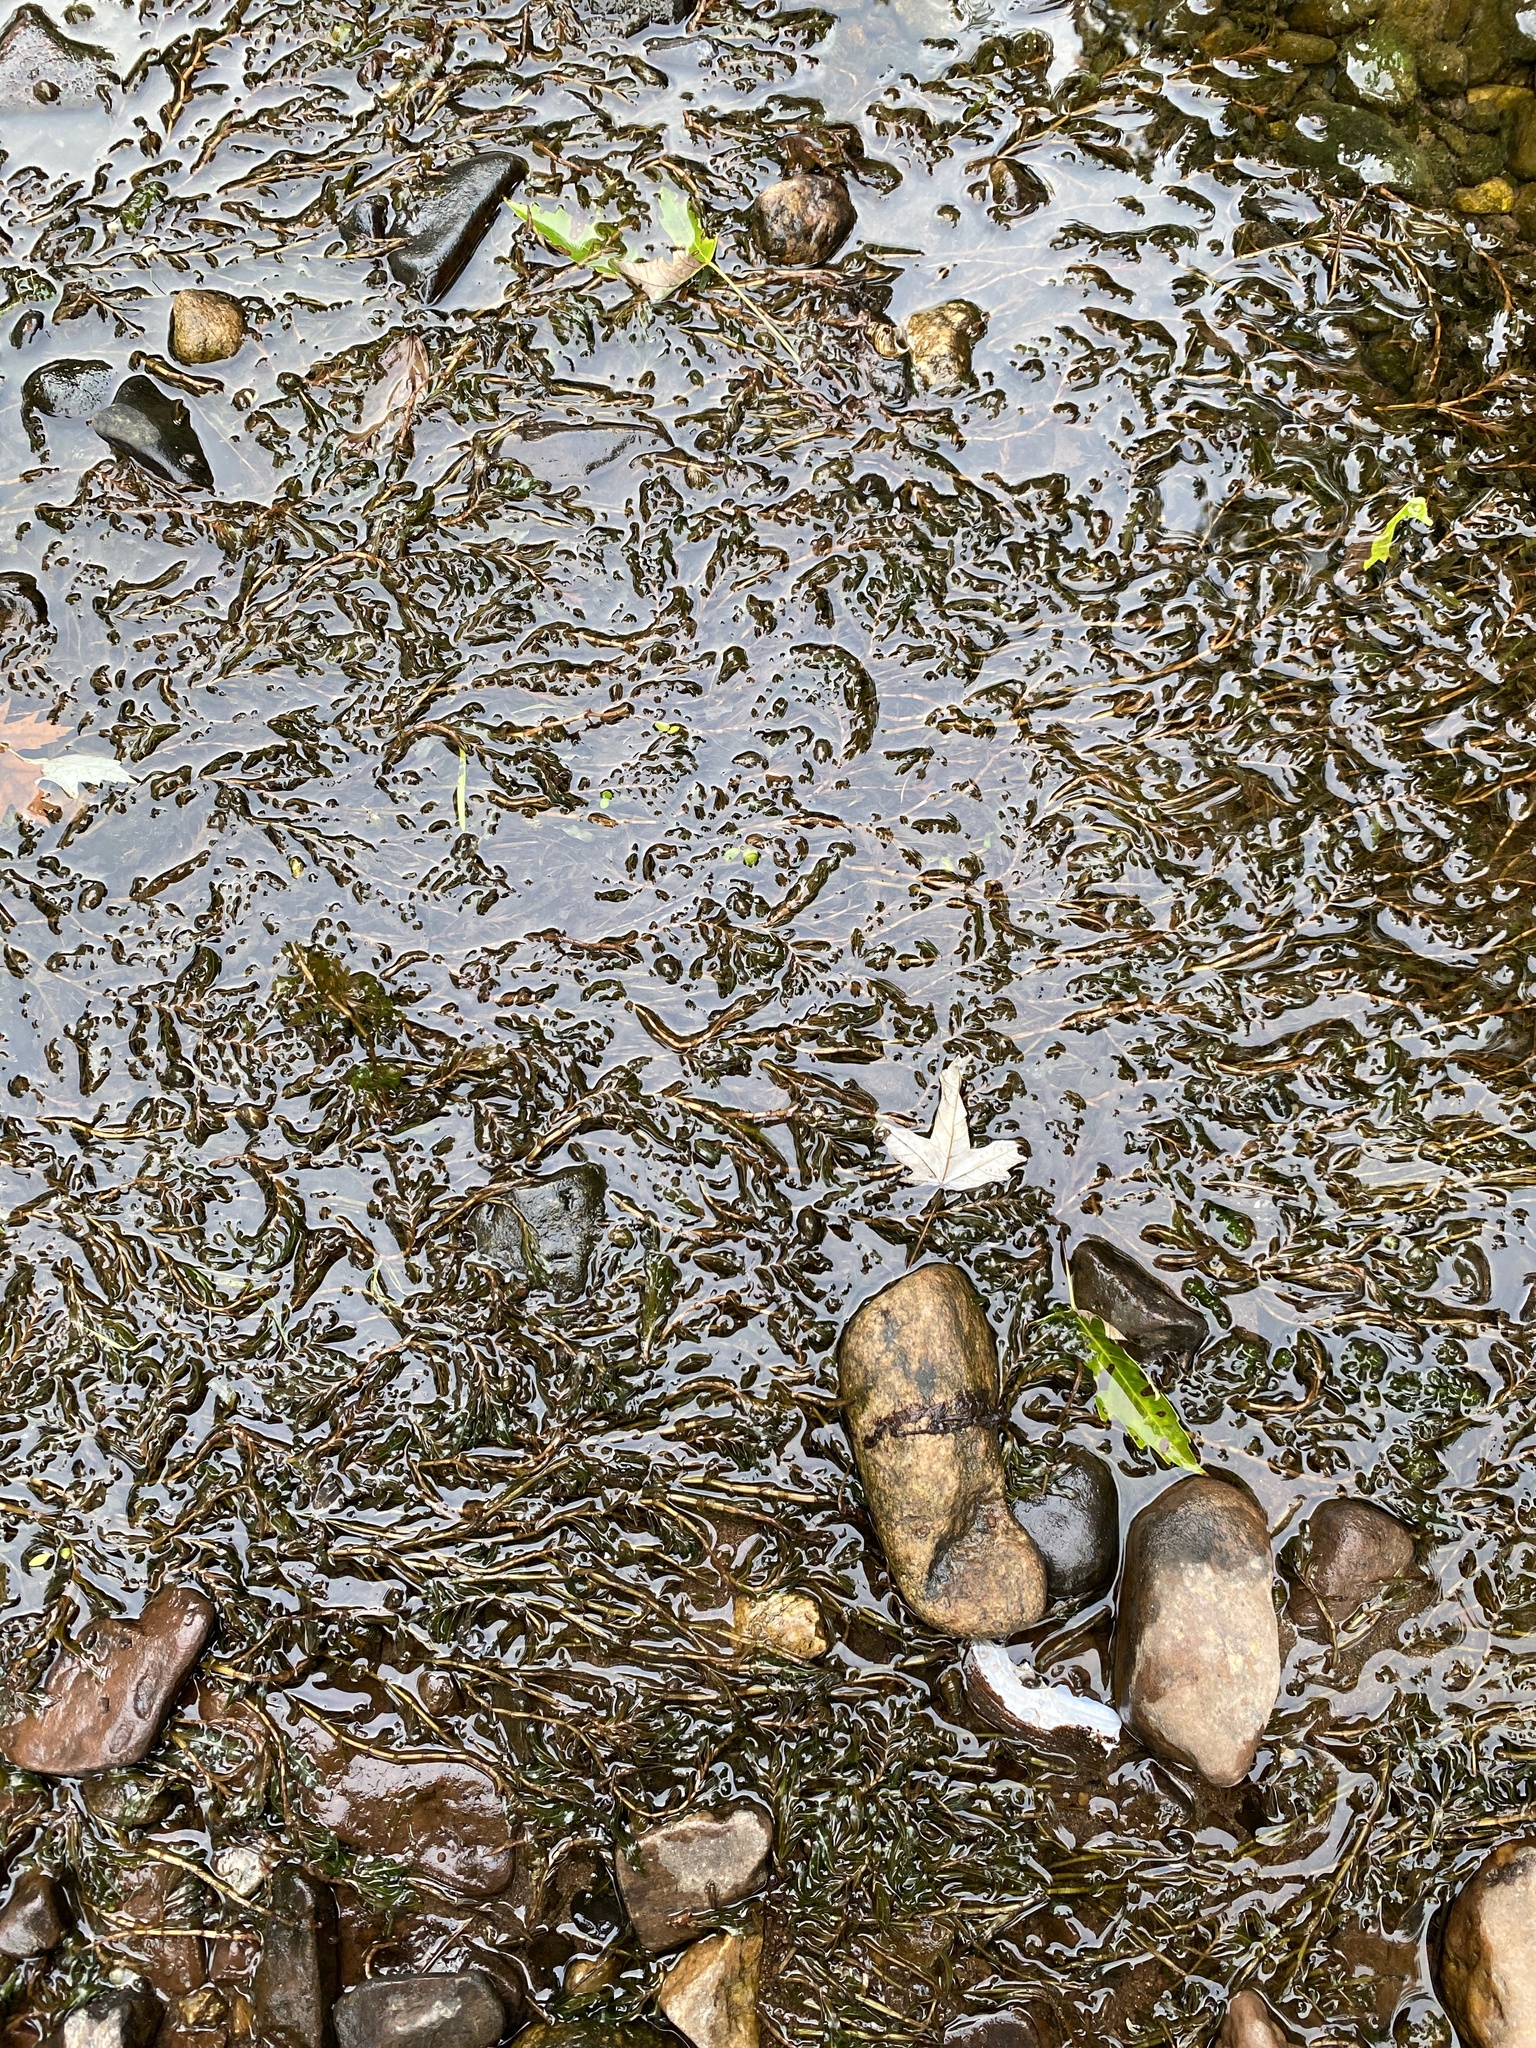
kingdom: Plantae
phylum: Tracheophyta
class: Liliopsida
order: Alismatales
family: Potamogetonaceae
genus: Potamogeton
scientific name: Potamogeton crispus
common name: Curled pondweed
